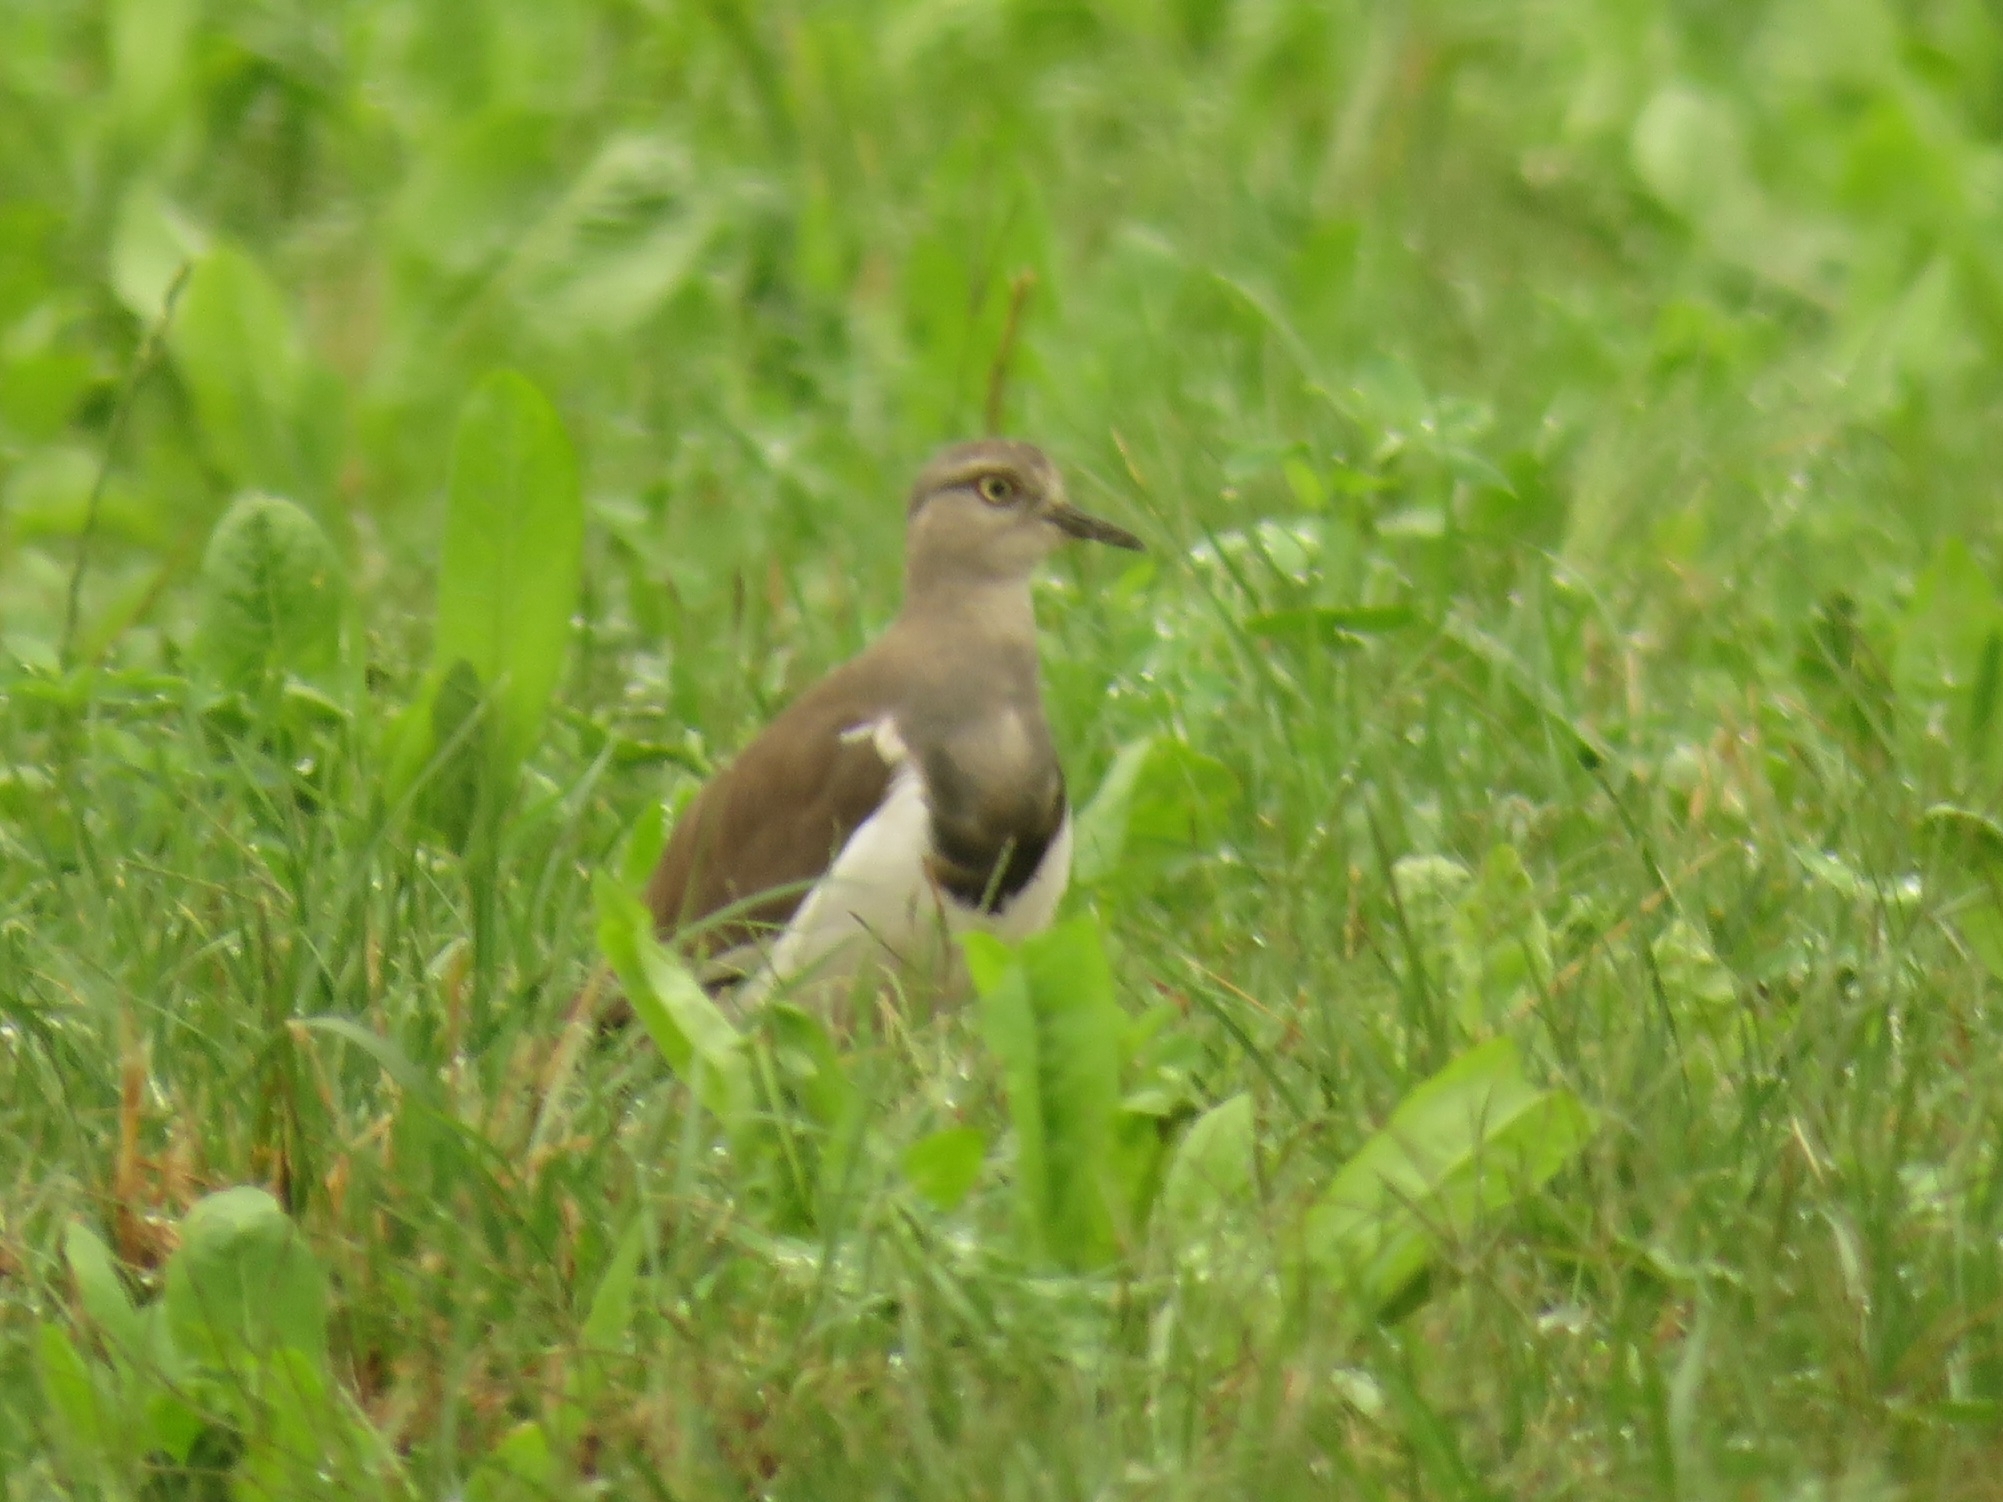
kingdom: Animalia
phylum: Chordata
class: Aves
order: Charadriiformes
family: Charadriidae
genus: Vanellus
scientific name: Vanellus melanopterus
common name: Black-winged lapwing
